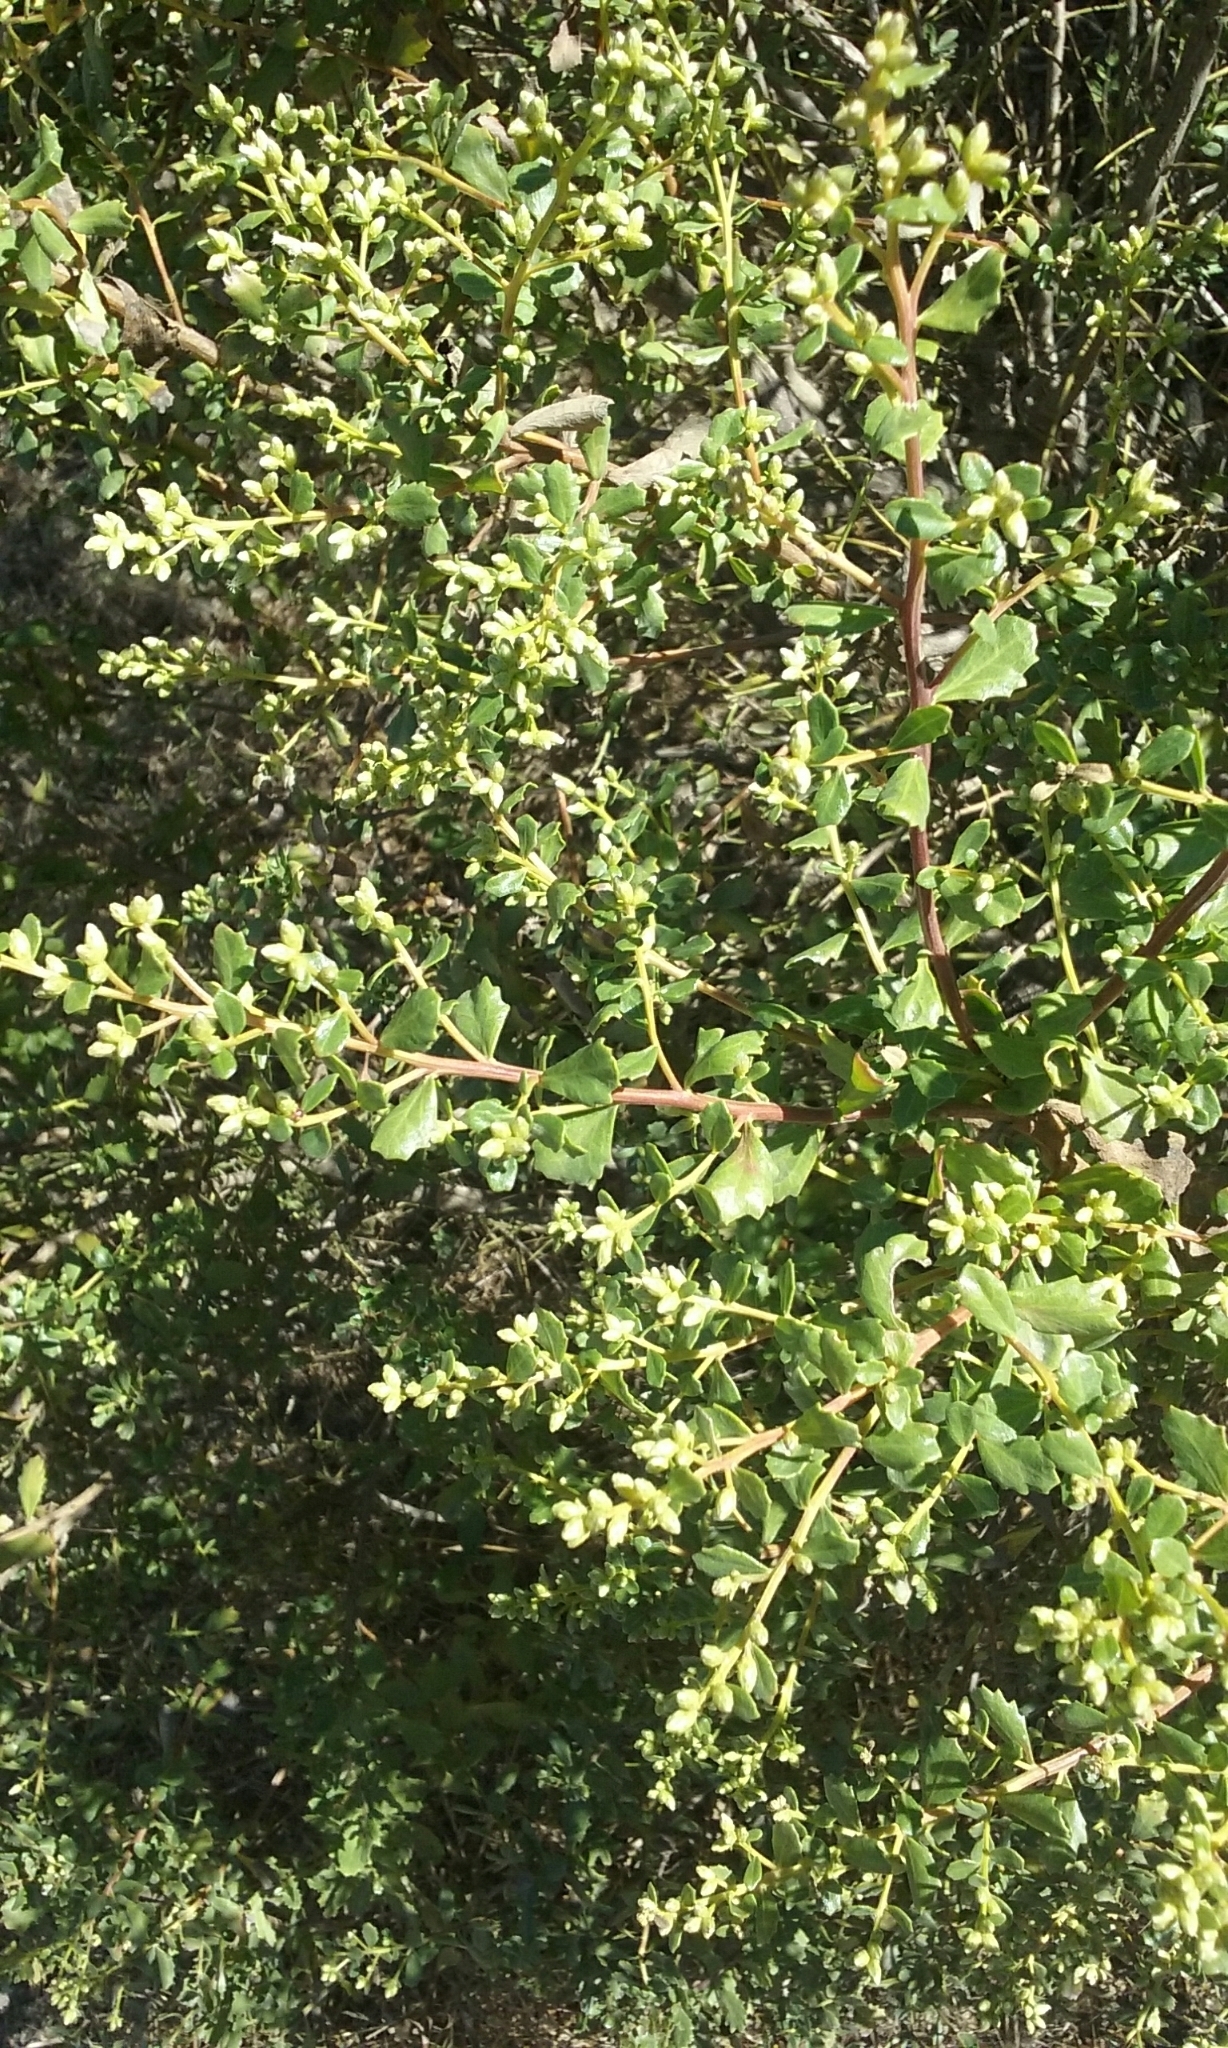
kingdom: Plantae
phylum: Tracheophyta
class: Magnoliopsida
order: Asterales
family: Asteraceae
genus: Baccharis
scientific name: Baccharis pilularis
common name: Coyotebrush
